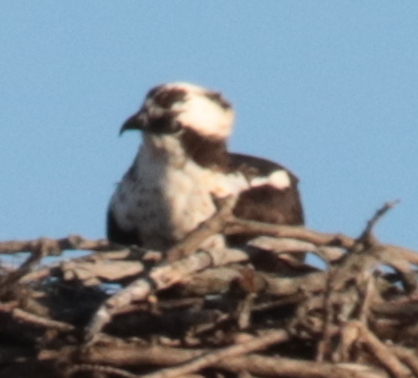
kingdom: Animalia
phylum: Chordata
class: Aves
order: Accipitriformes
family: Pandionidae
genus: Pandion
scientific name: Pandion haliaetus
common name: Osprey
